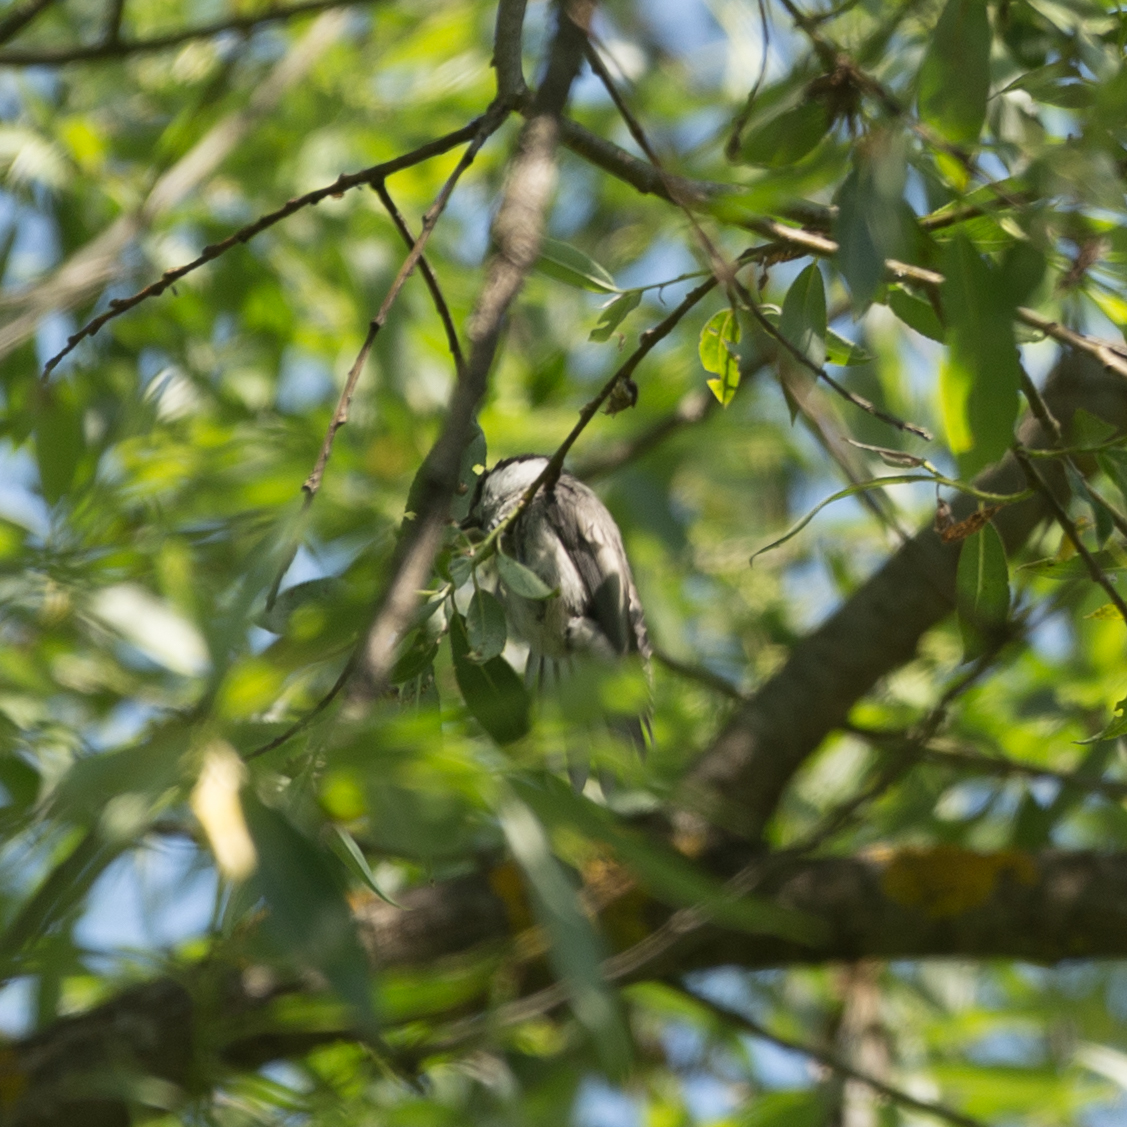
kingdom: Animalia
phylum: Chordata
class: Aves
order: Passeriformes
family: Paridae
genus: Poecile
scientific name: Poecile palustris
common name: Marsh tit
